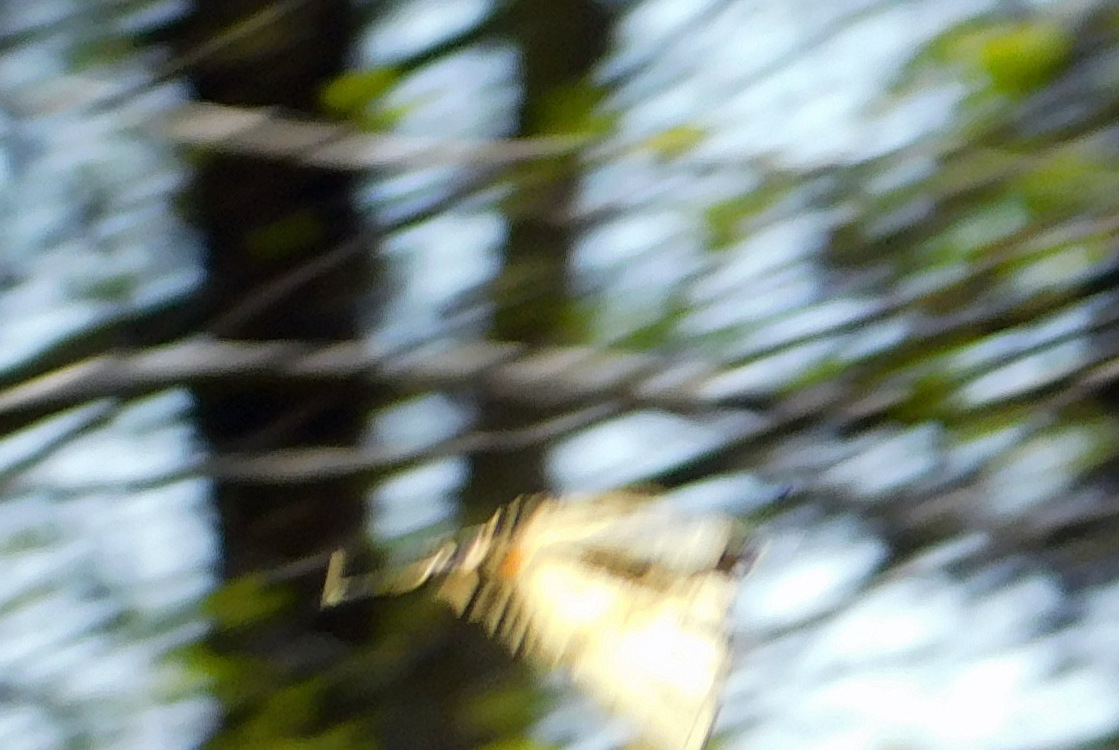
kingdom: Animalia
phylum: Arthropoda
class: Insecta
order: Lepidoptera
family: Papilionidae
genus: Iphiclides
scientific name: Iphiclides podalirius
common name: Scarce swallowtail
